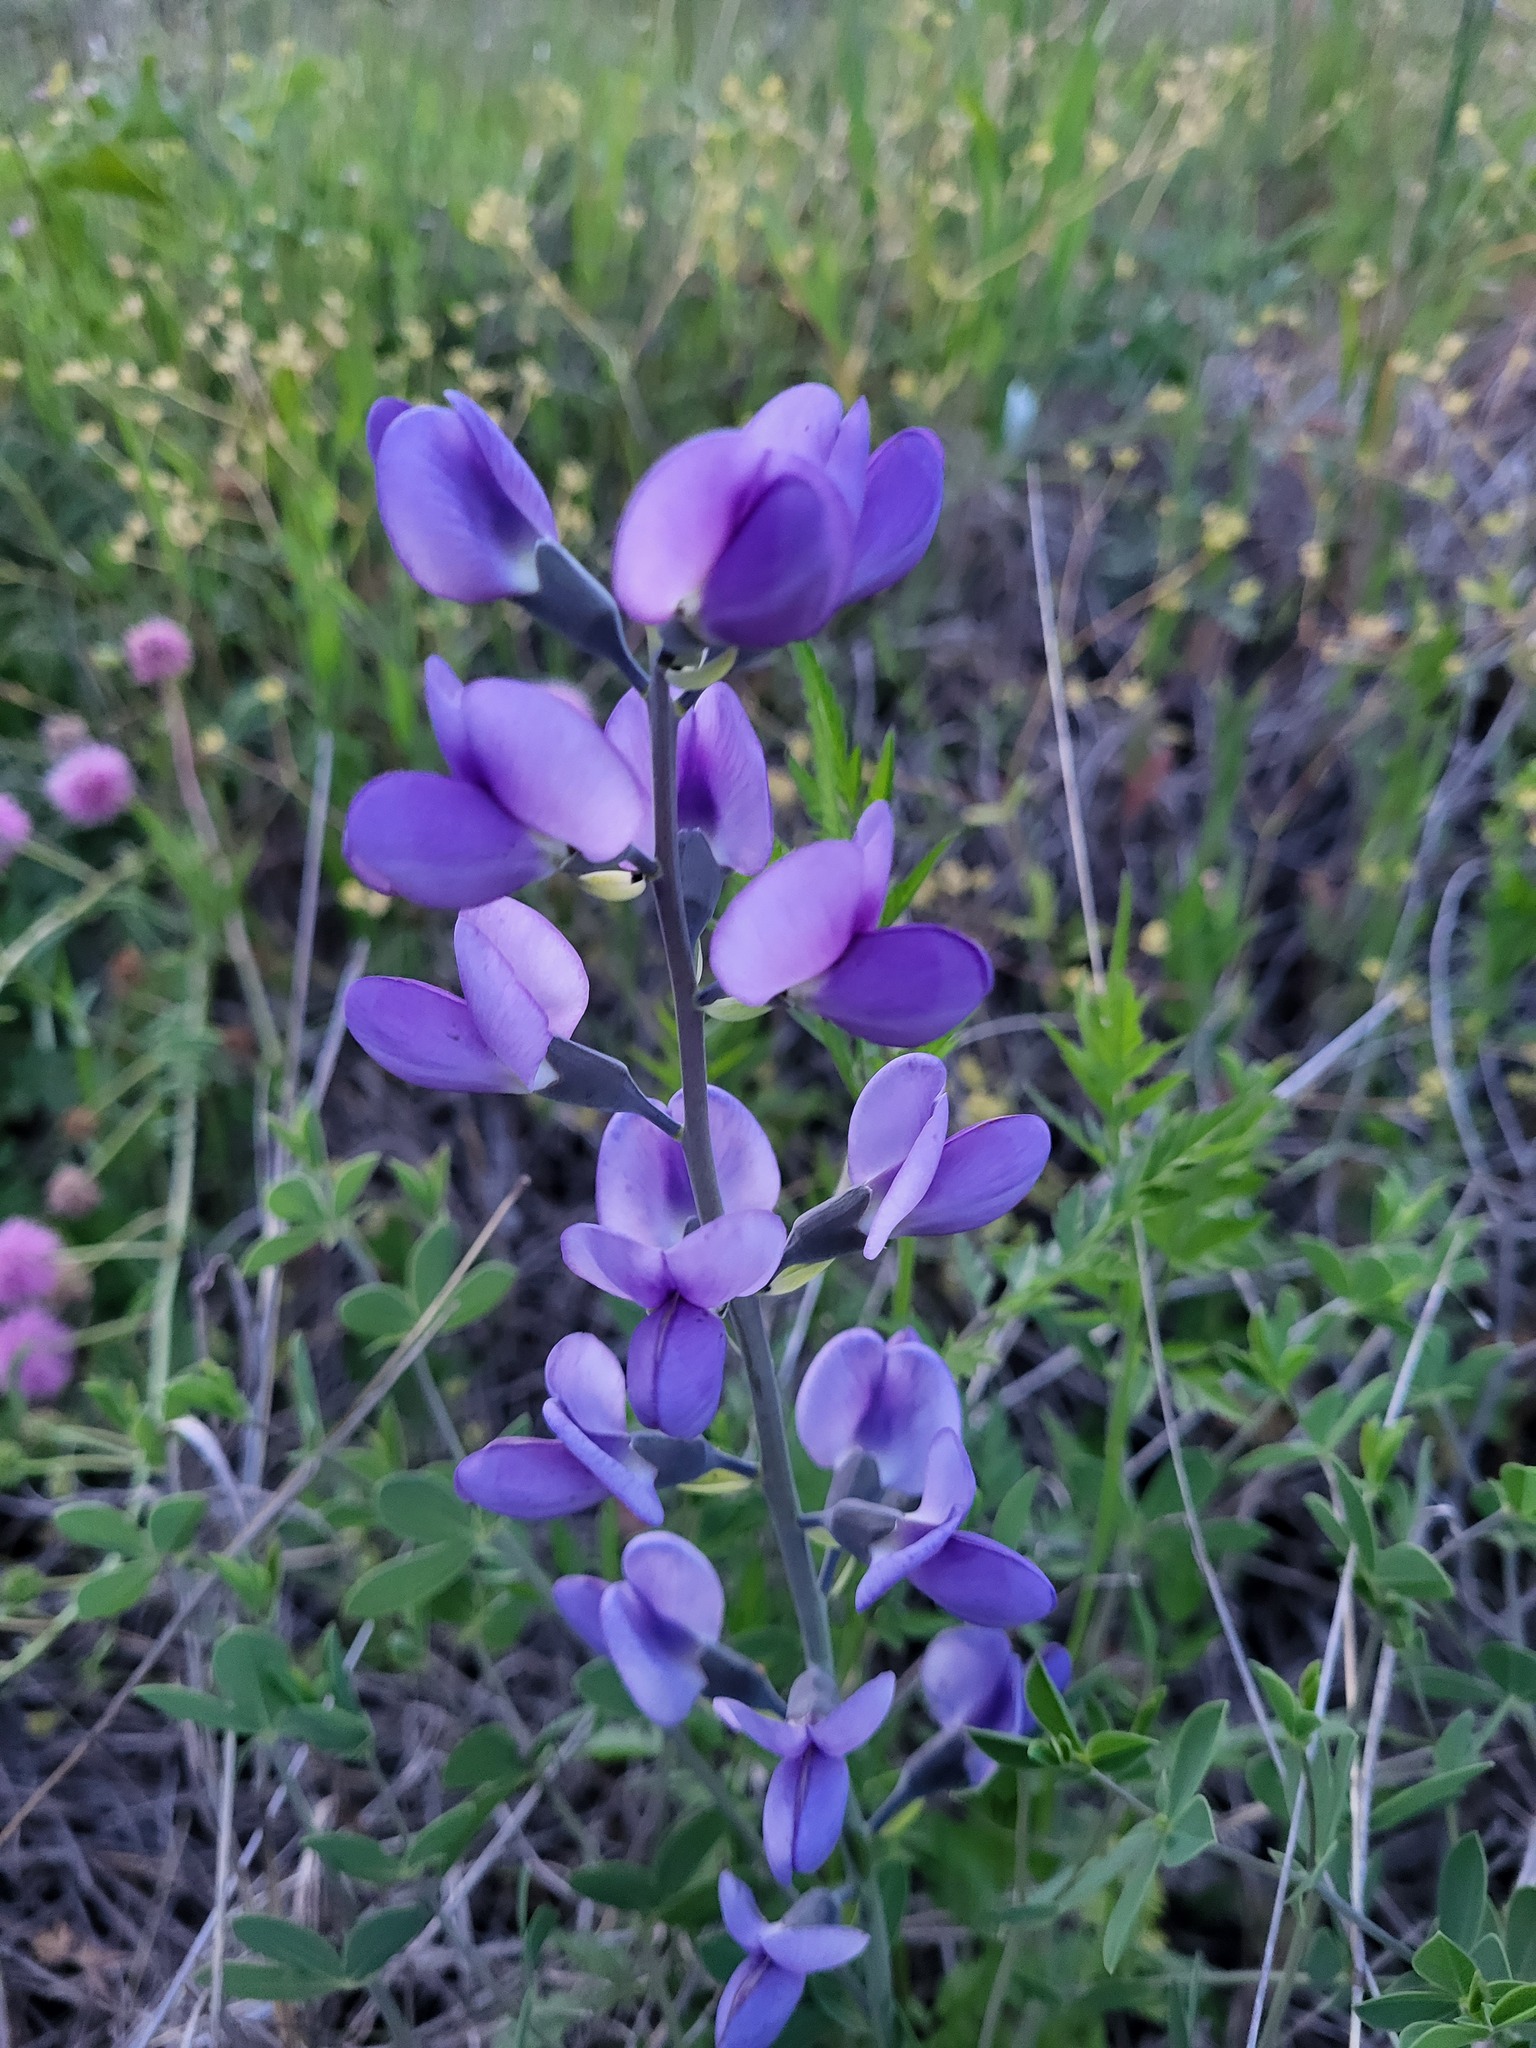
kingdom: Plantae
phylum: Tracheophyta
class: Magnoliopsida
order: Fabales
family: Fabaceae
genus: Baptisia
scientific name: Baptisia australis
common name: Blue false indigo
